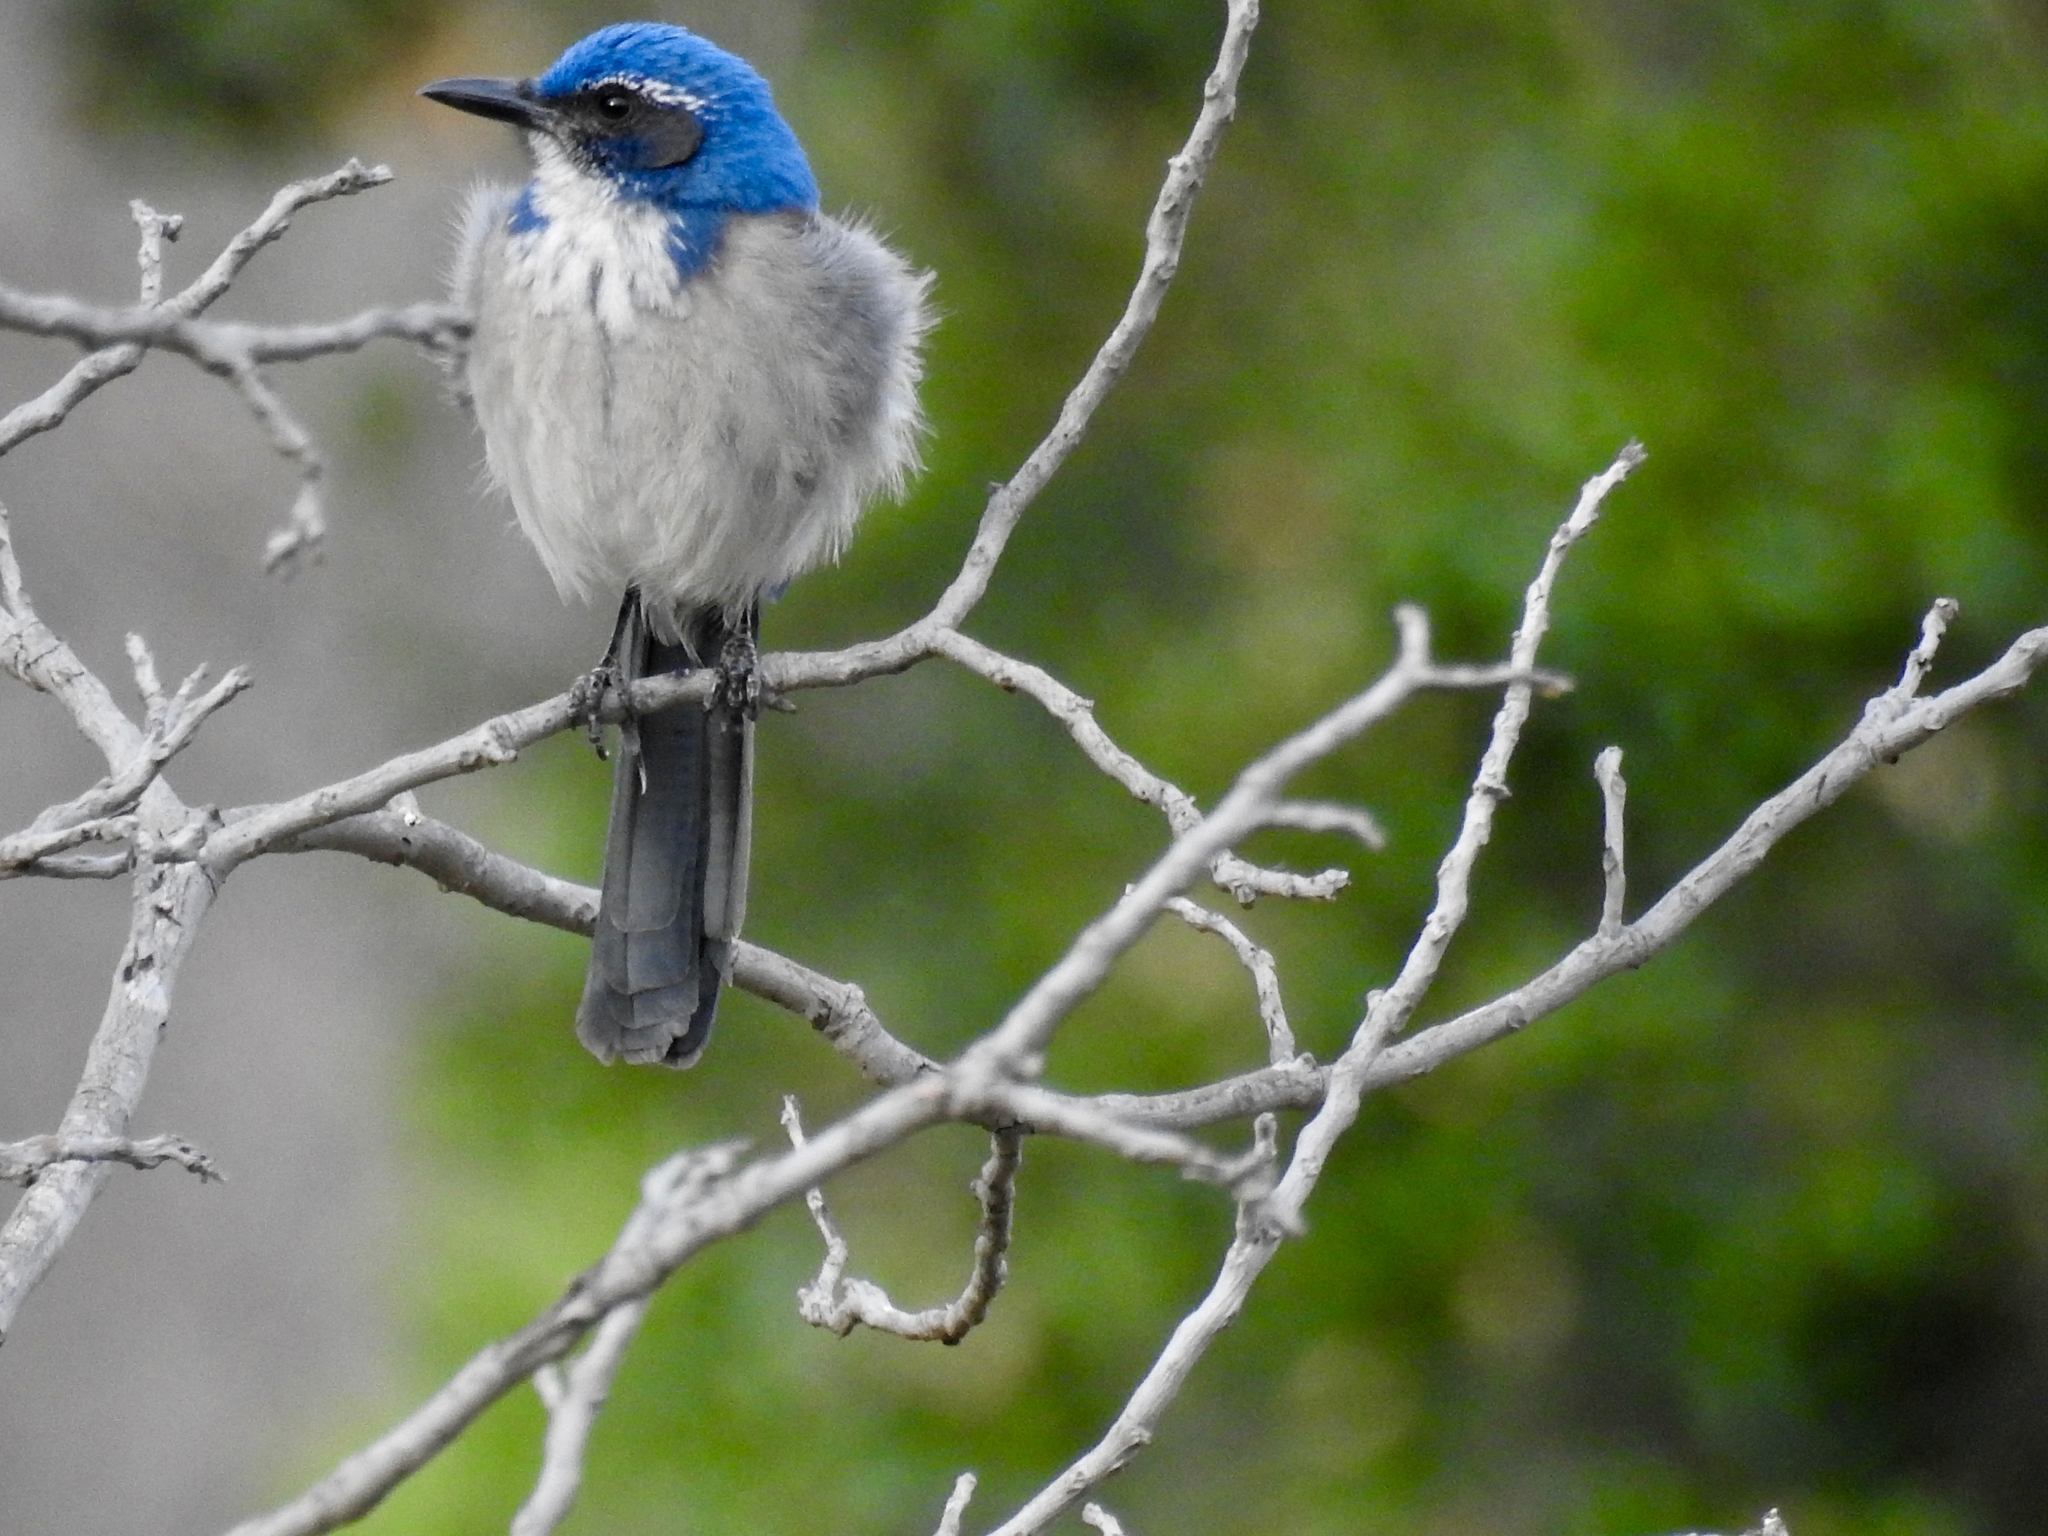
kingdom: Animalia
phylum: Chordata
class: Aves
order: Passeriformes
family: Corvidae
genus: Aphelocoma
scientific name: Aphelocoma californica
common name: California scrub-jay
